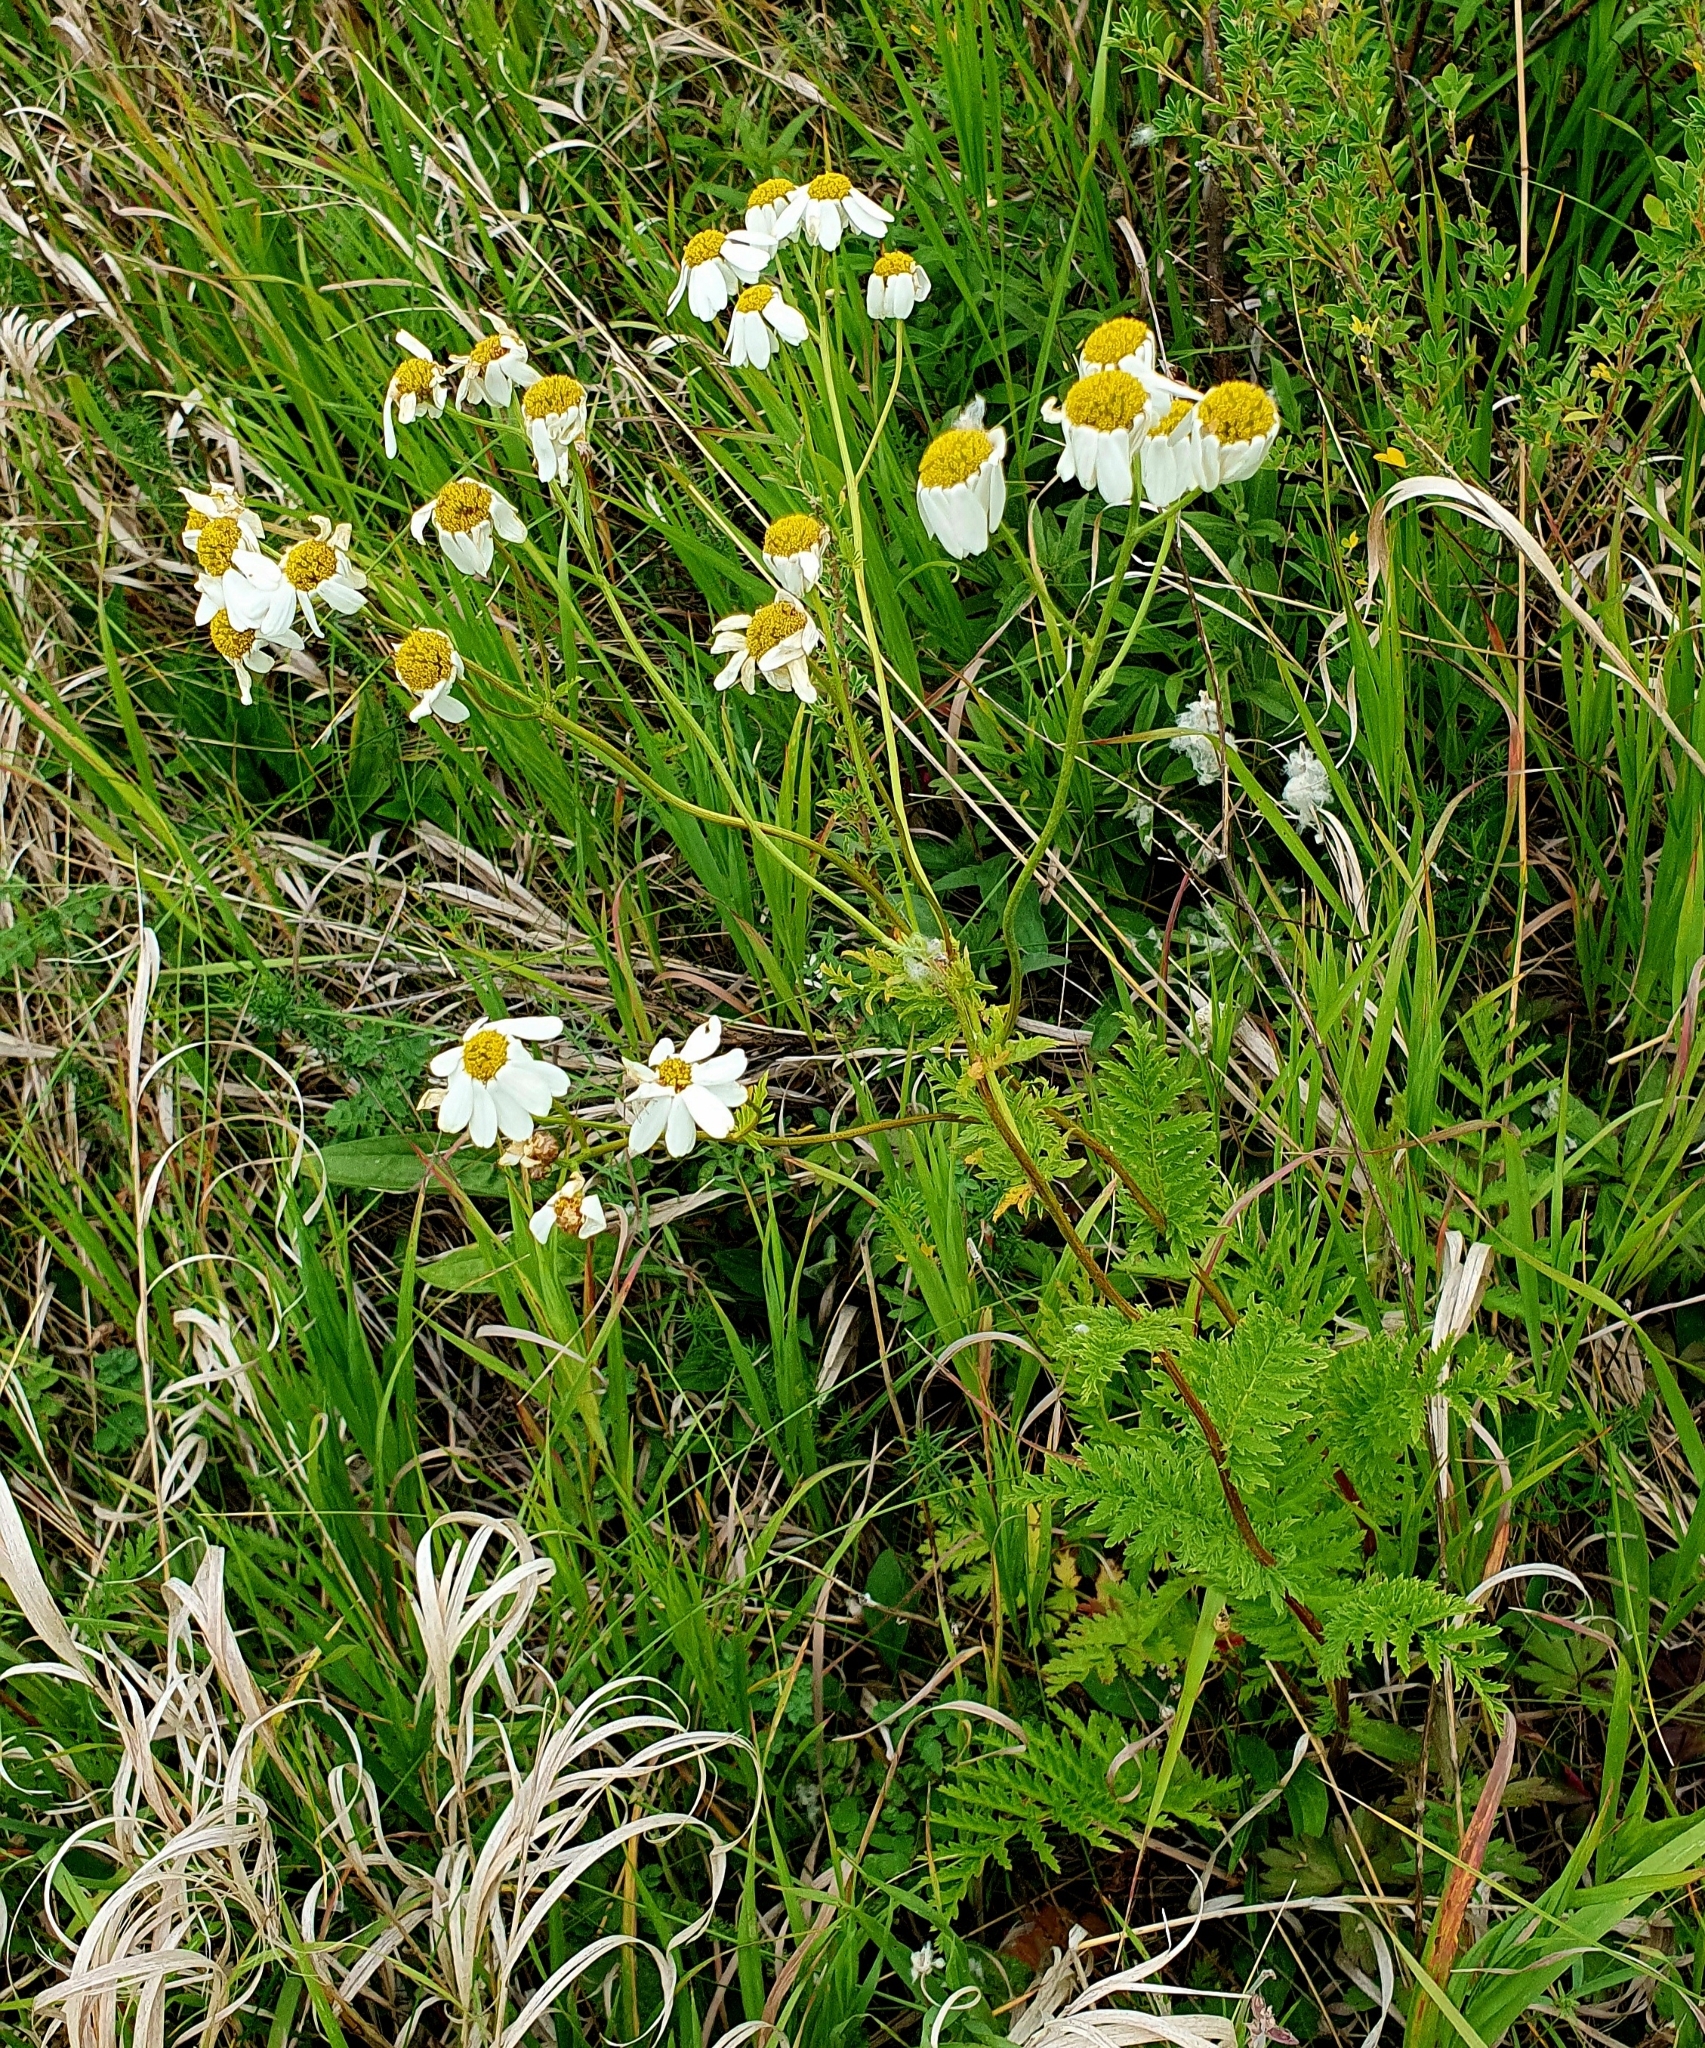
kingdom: Plantae
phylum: Tracheophyta
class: Magnoliopsida
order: Asterales
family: Asteraceae
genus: Tanacetum
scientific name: Tanacetum corymbosum
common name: Scentless feverfew
